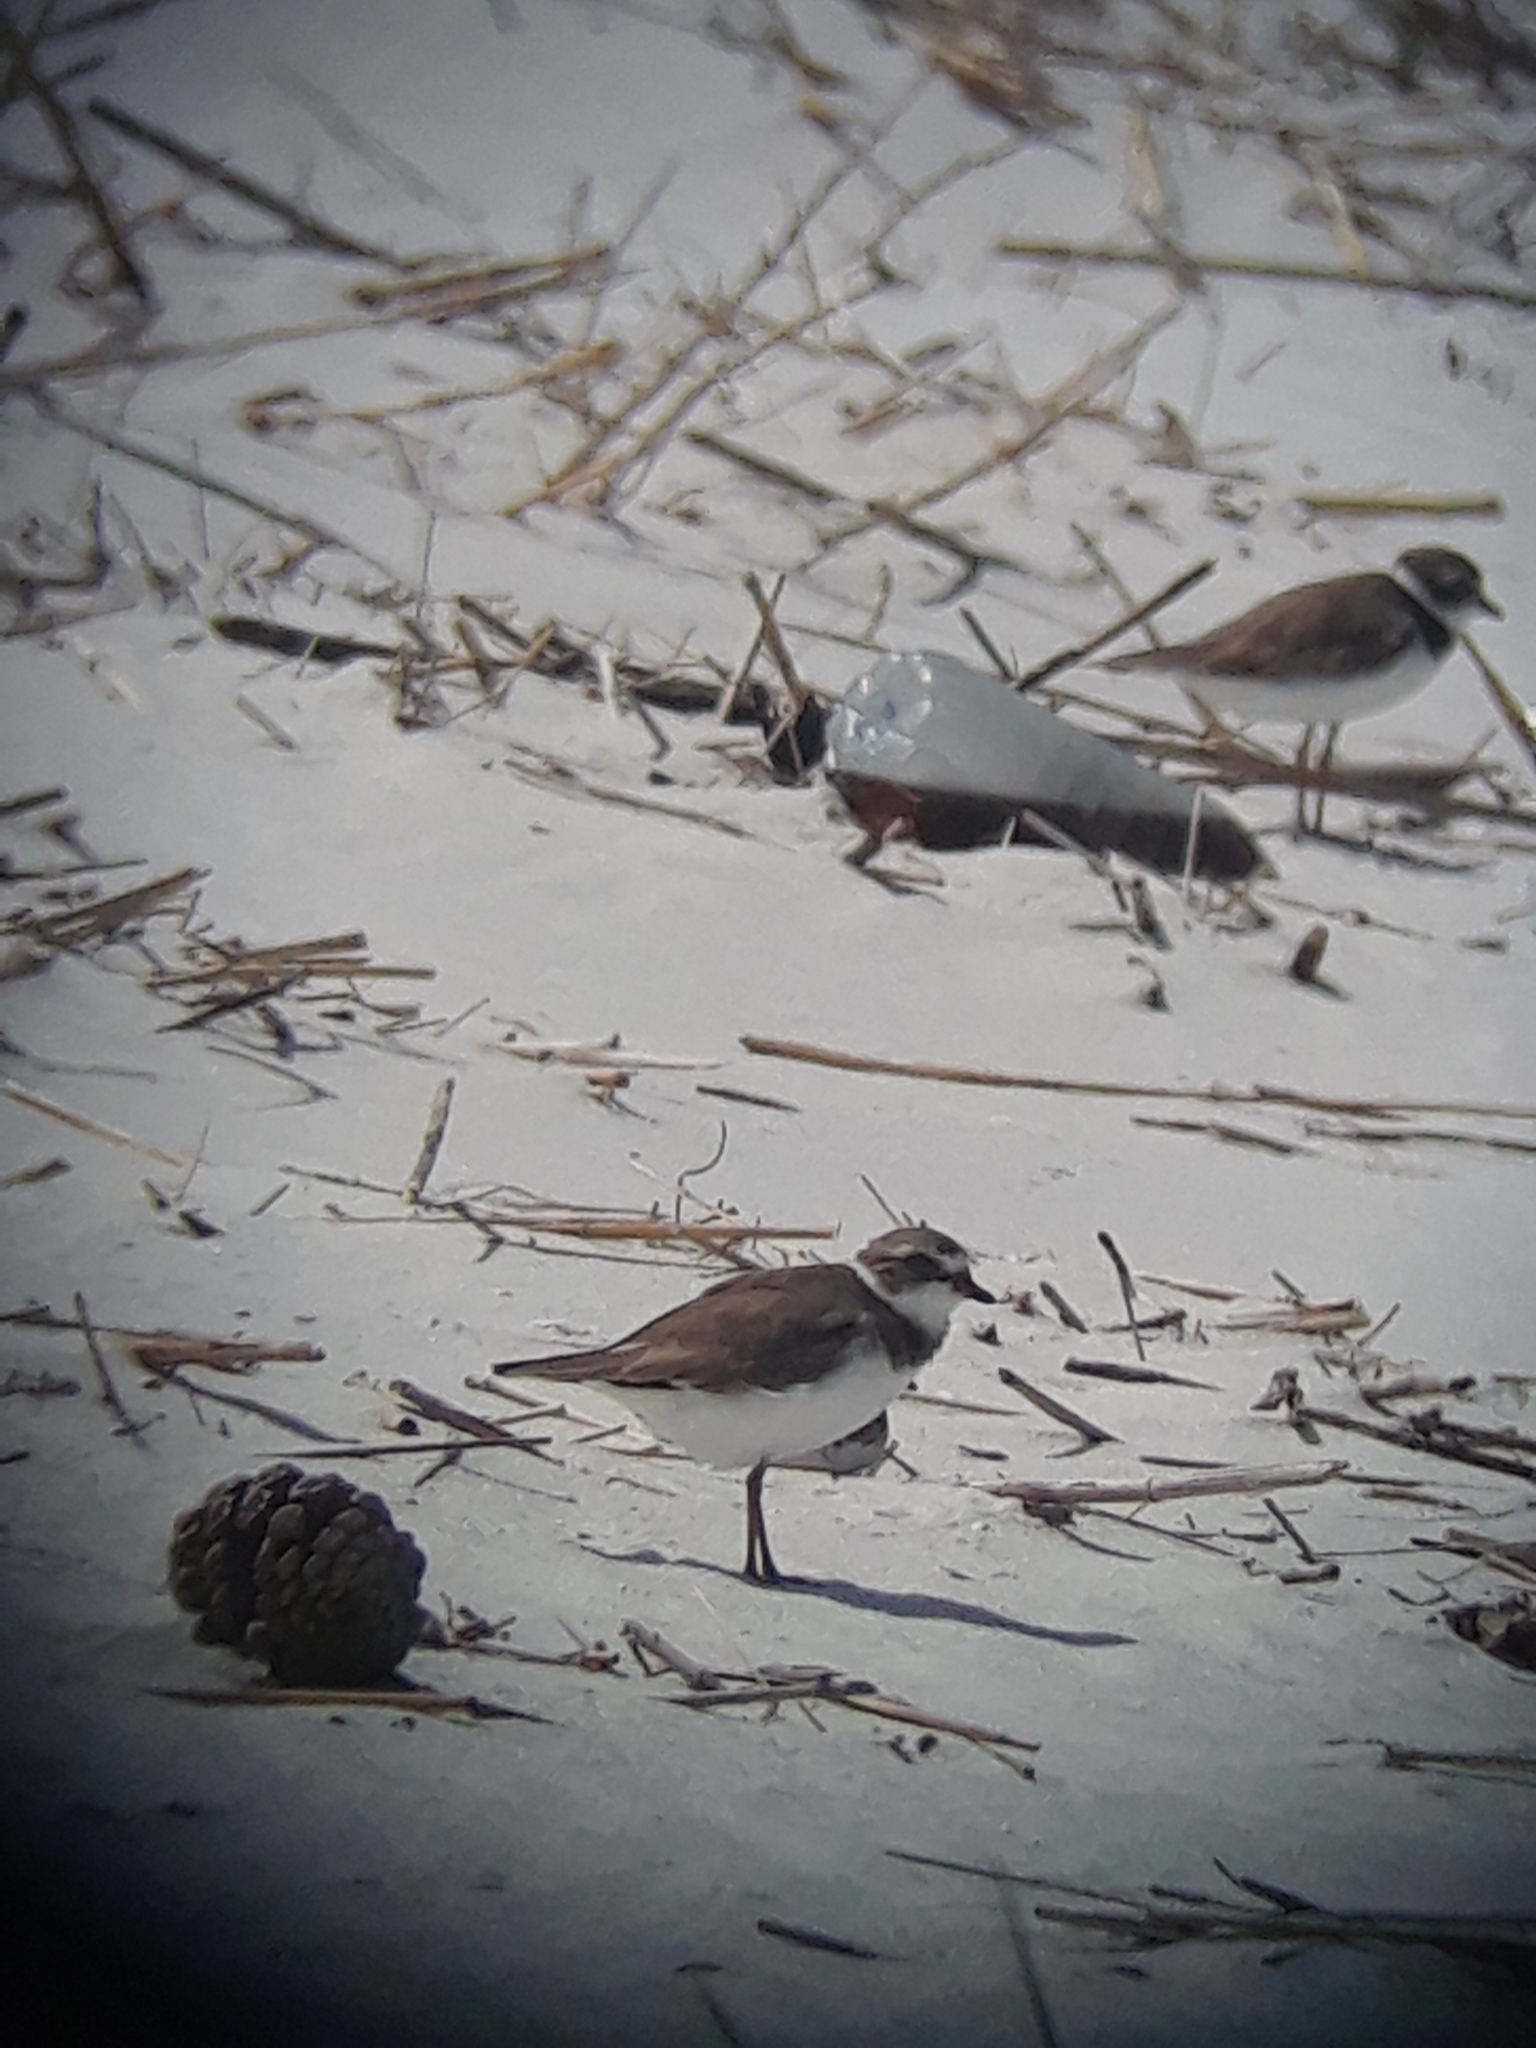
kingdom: Animalia
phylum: Chordata
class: Aves
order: Charadriiformes
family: Charadriidae
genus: Charadrius
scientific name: Charadrius semipalmatus
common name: Semipalmated plover
